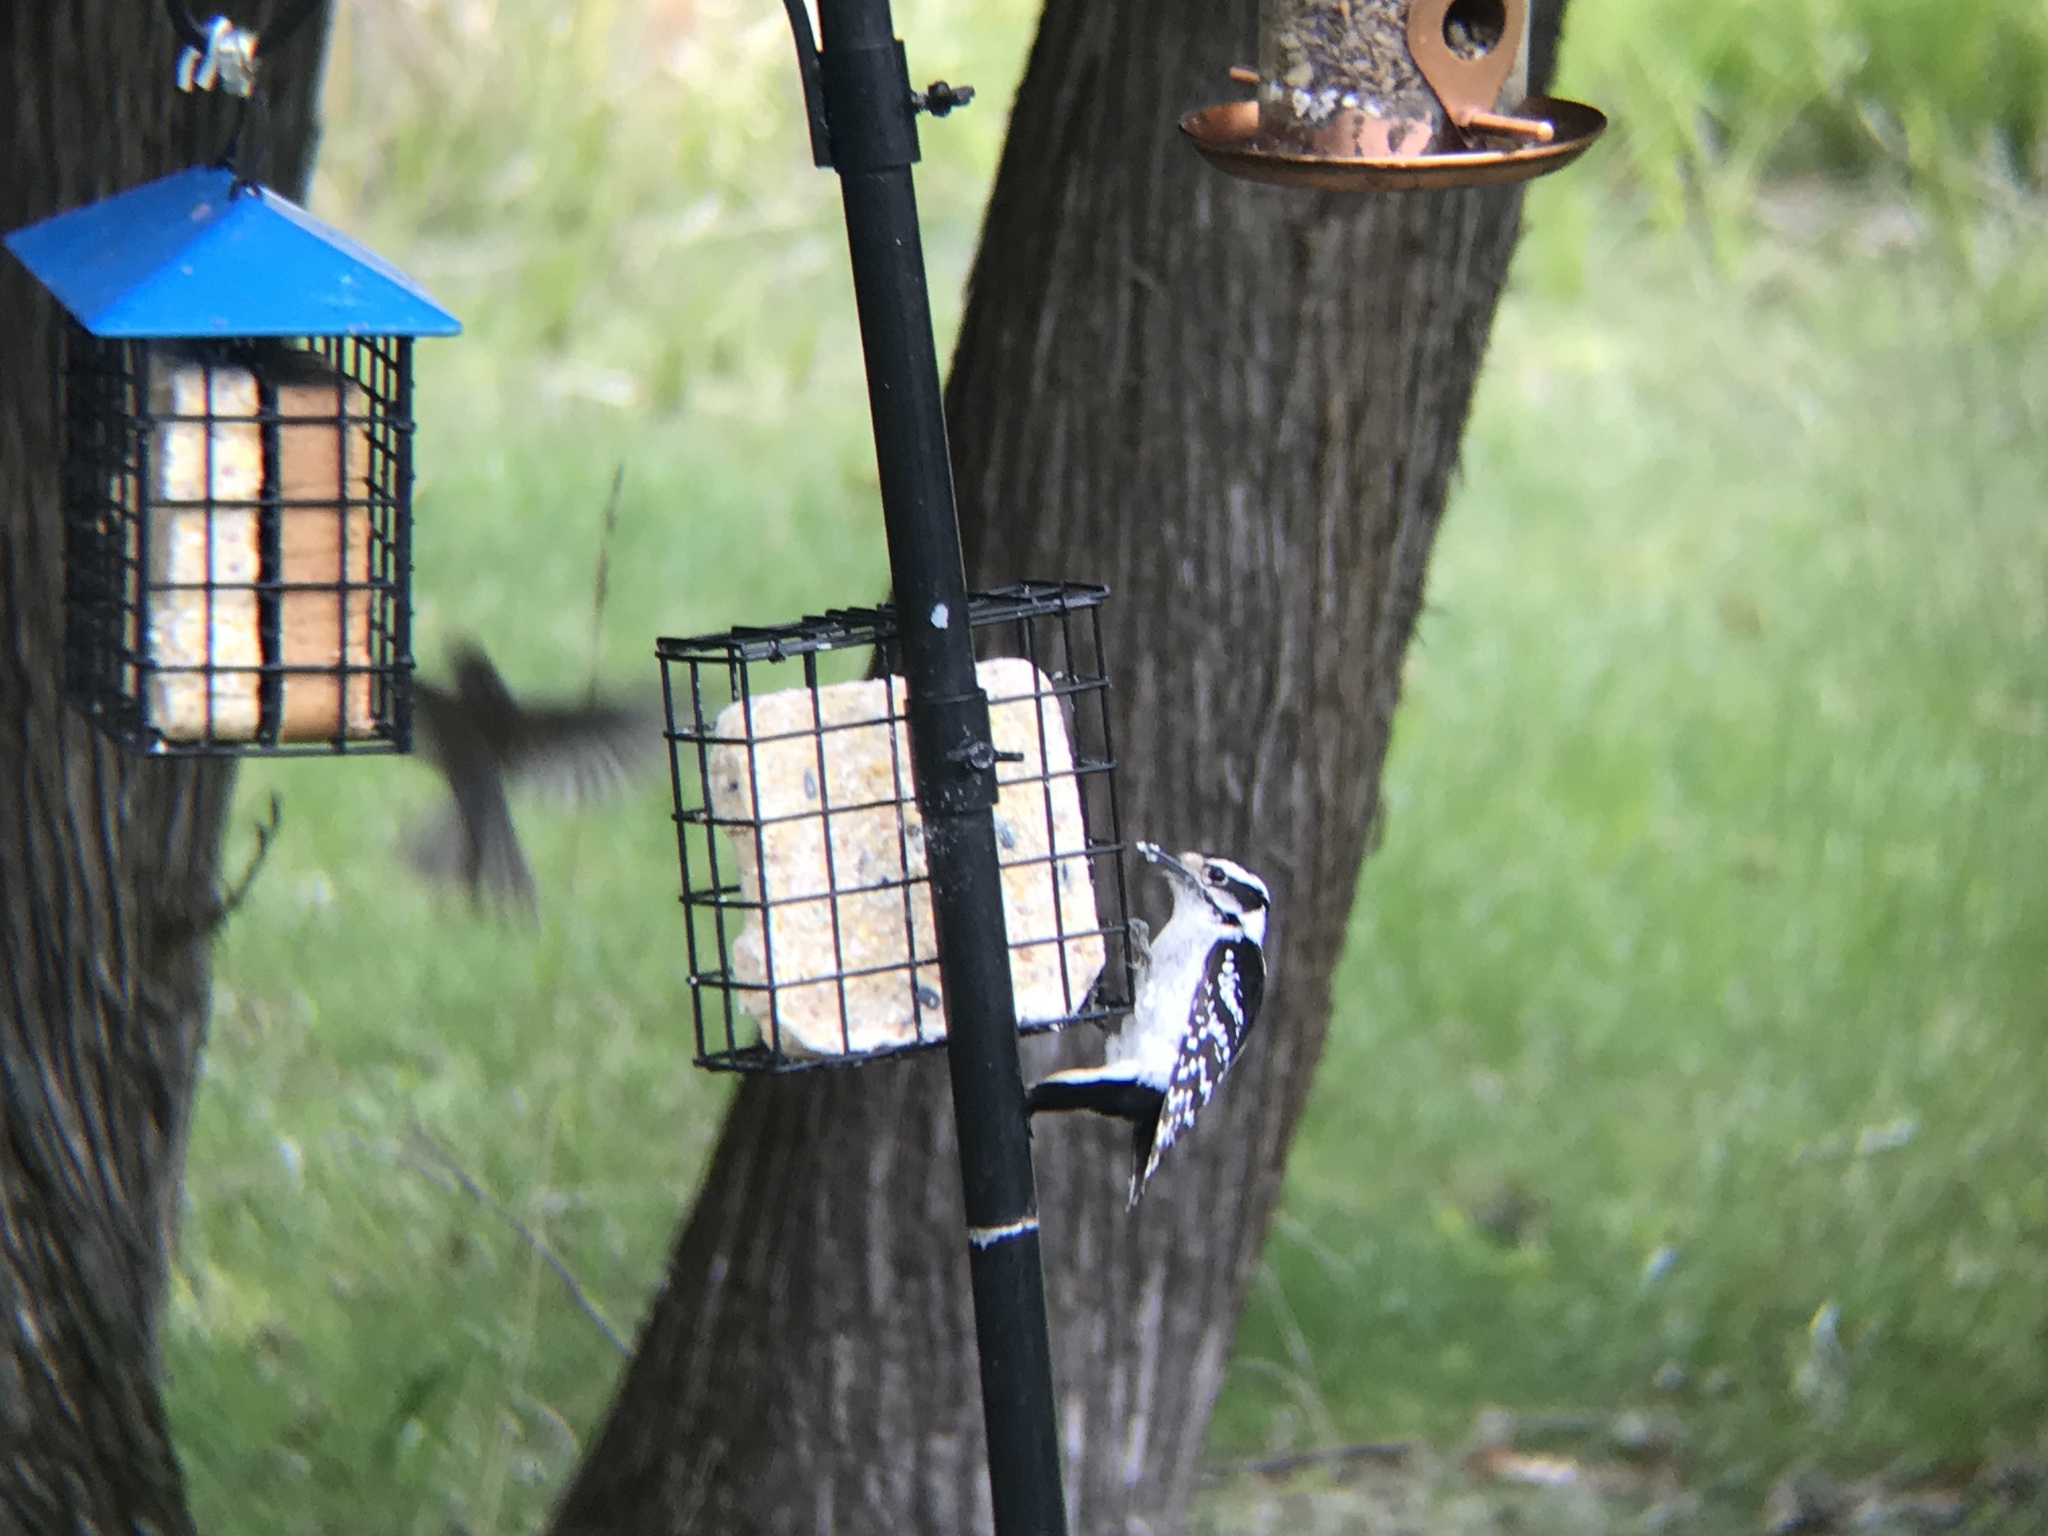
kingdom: Animalia
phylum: Chordata
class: Aves
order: Piciformes
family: Picidae
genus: Dryobates
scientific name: Dryobates pubescens
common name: Downy woodpecker
